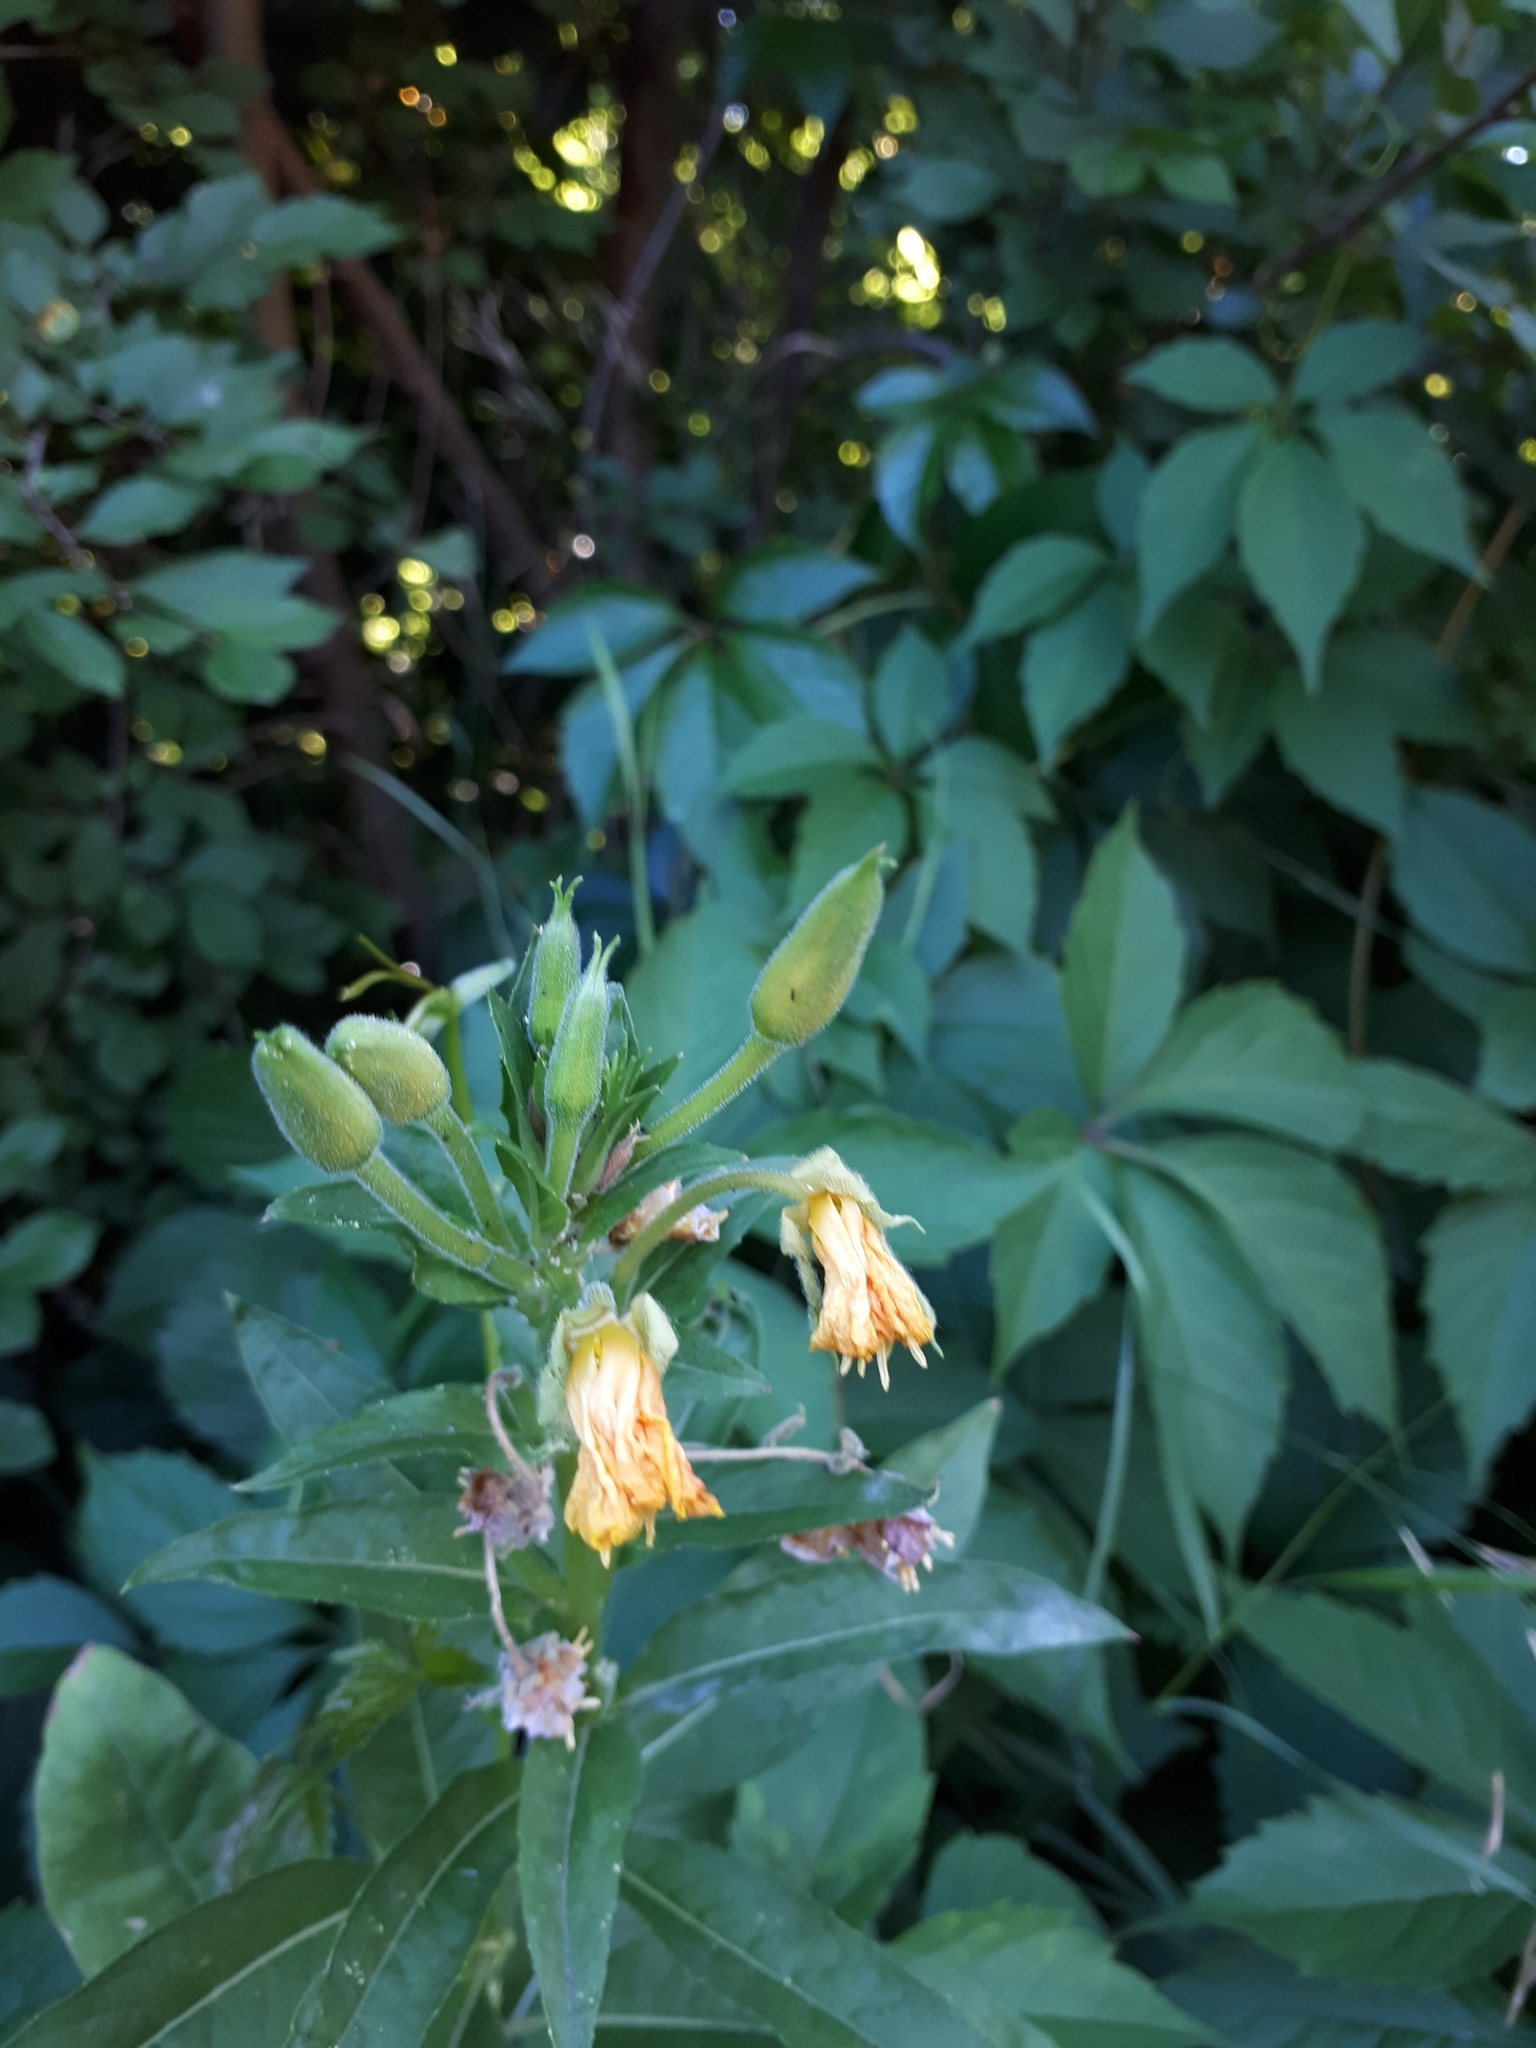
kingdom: Plantae
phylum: Tracheophyta
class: Magnoliopsida
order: Myrtales
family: Onagraceae
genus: Oenothera
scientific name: Oenothera biennis
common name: Common evening-primrose
